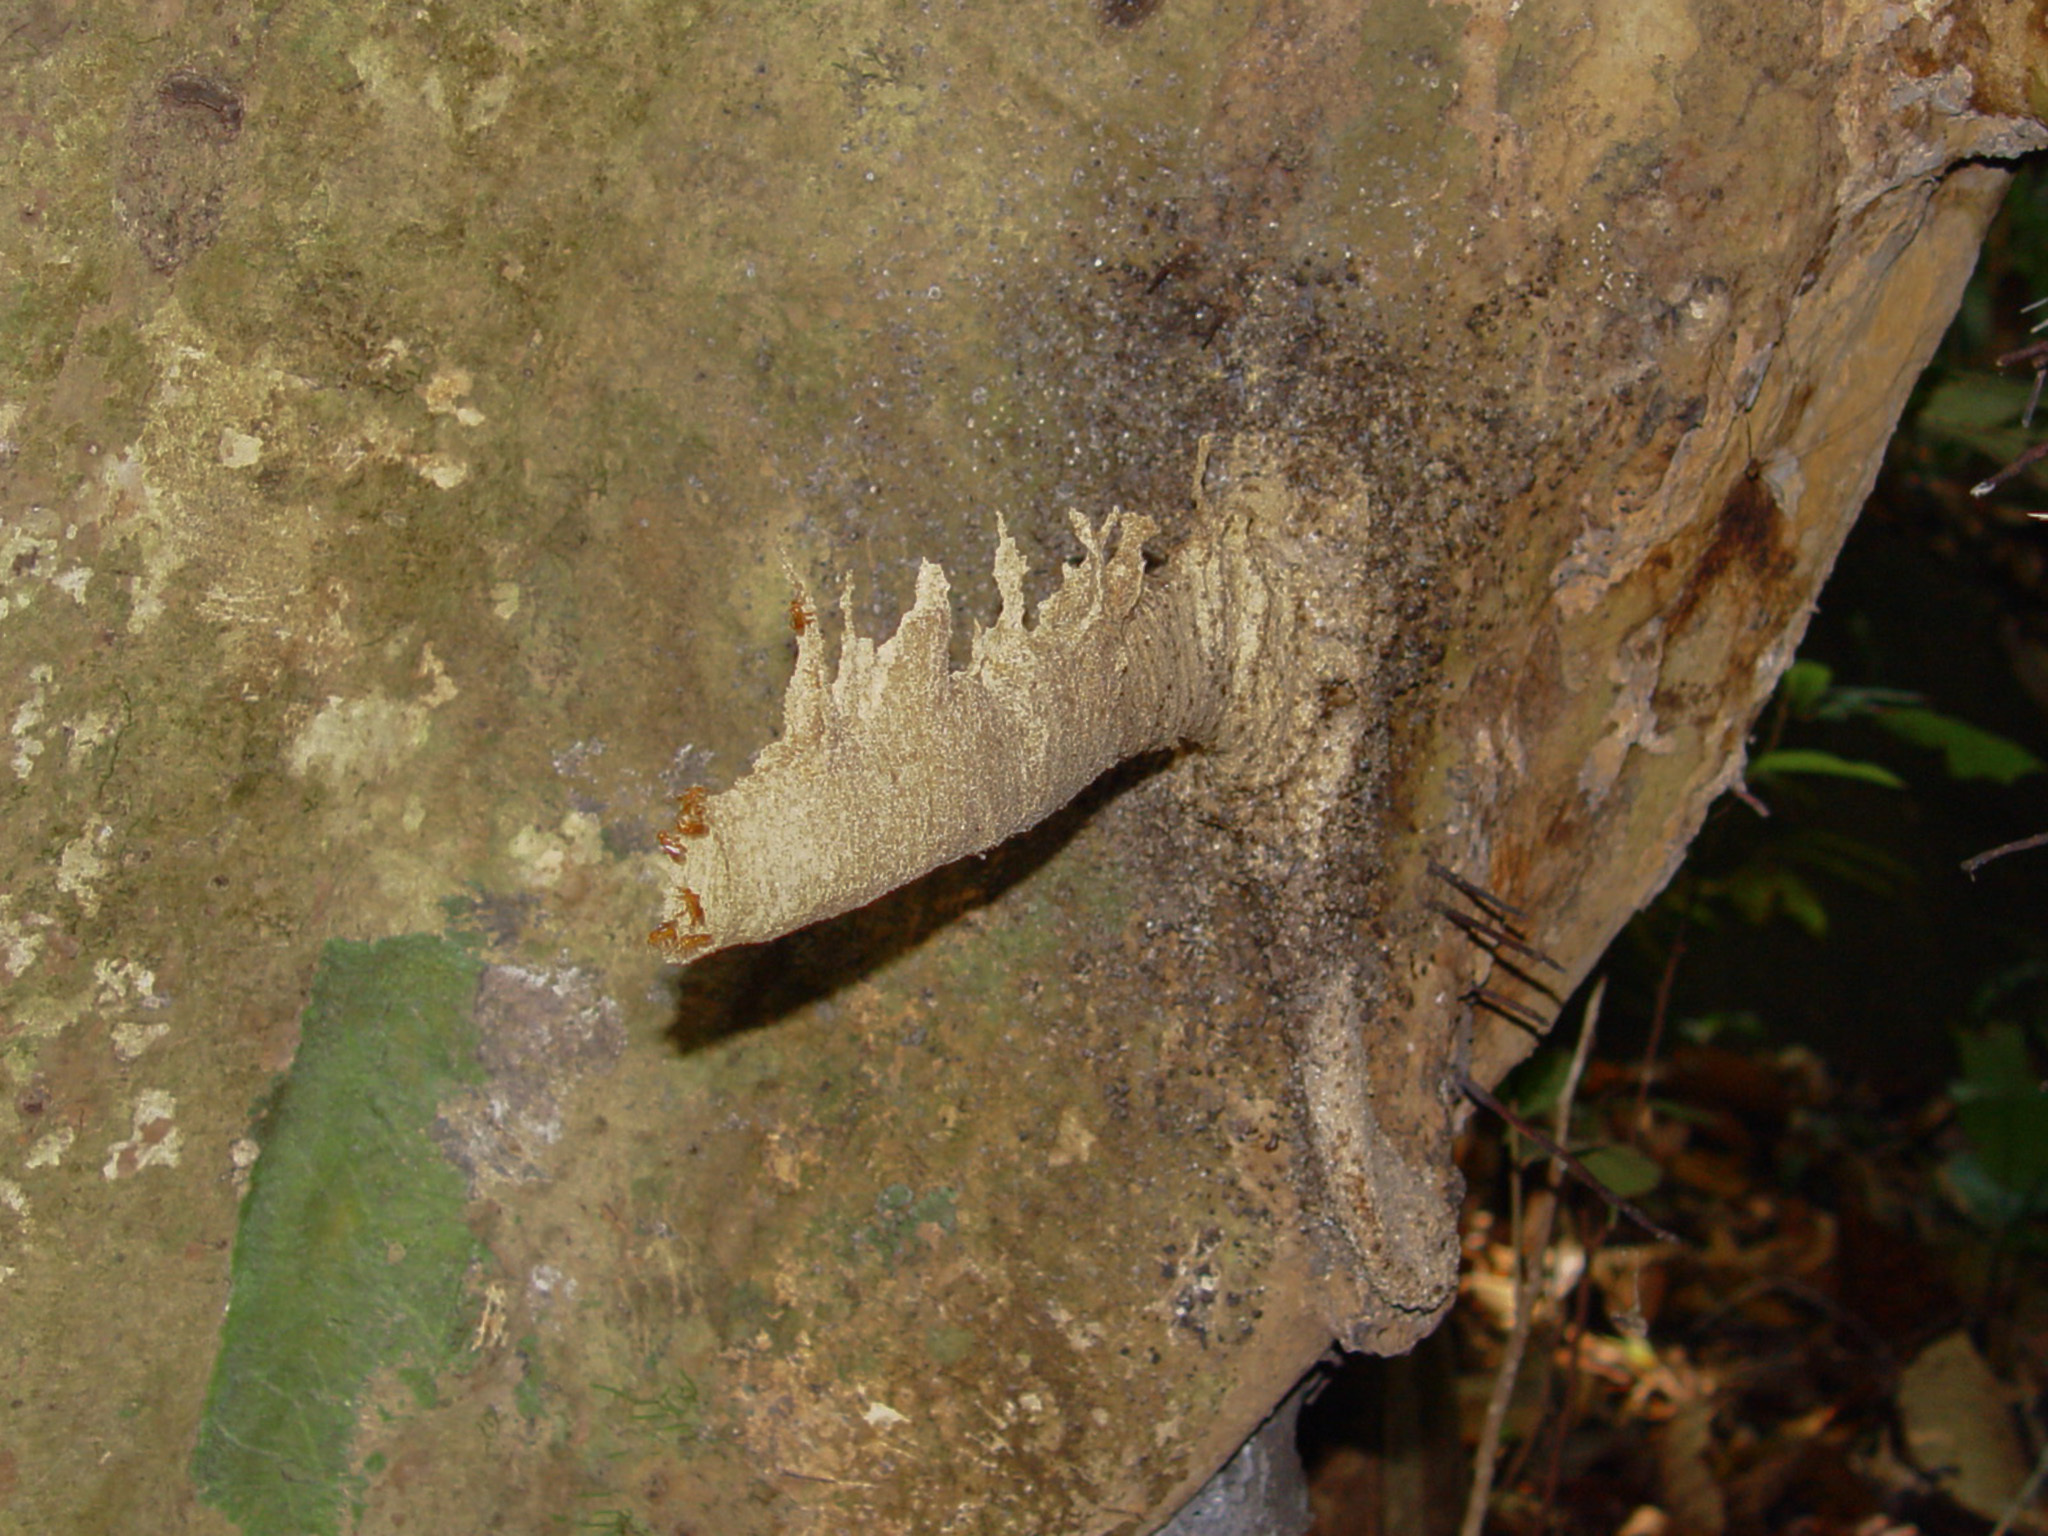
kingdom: Animalia
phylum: Arthropoda
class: Insecta
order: Hymenoptera
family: Apidae
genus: Tetragonula
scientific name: Tetragonula melina
